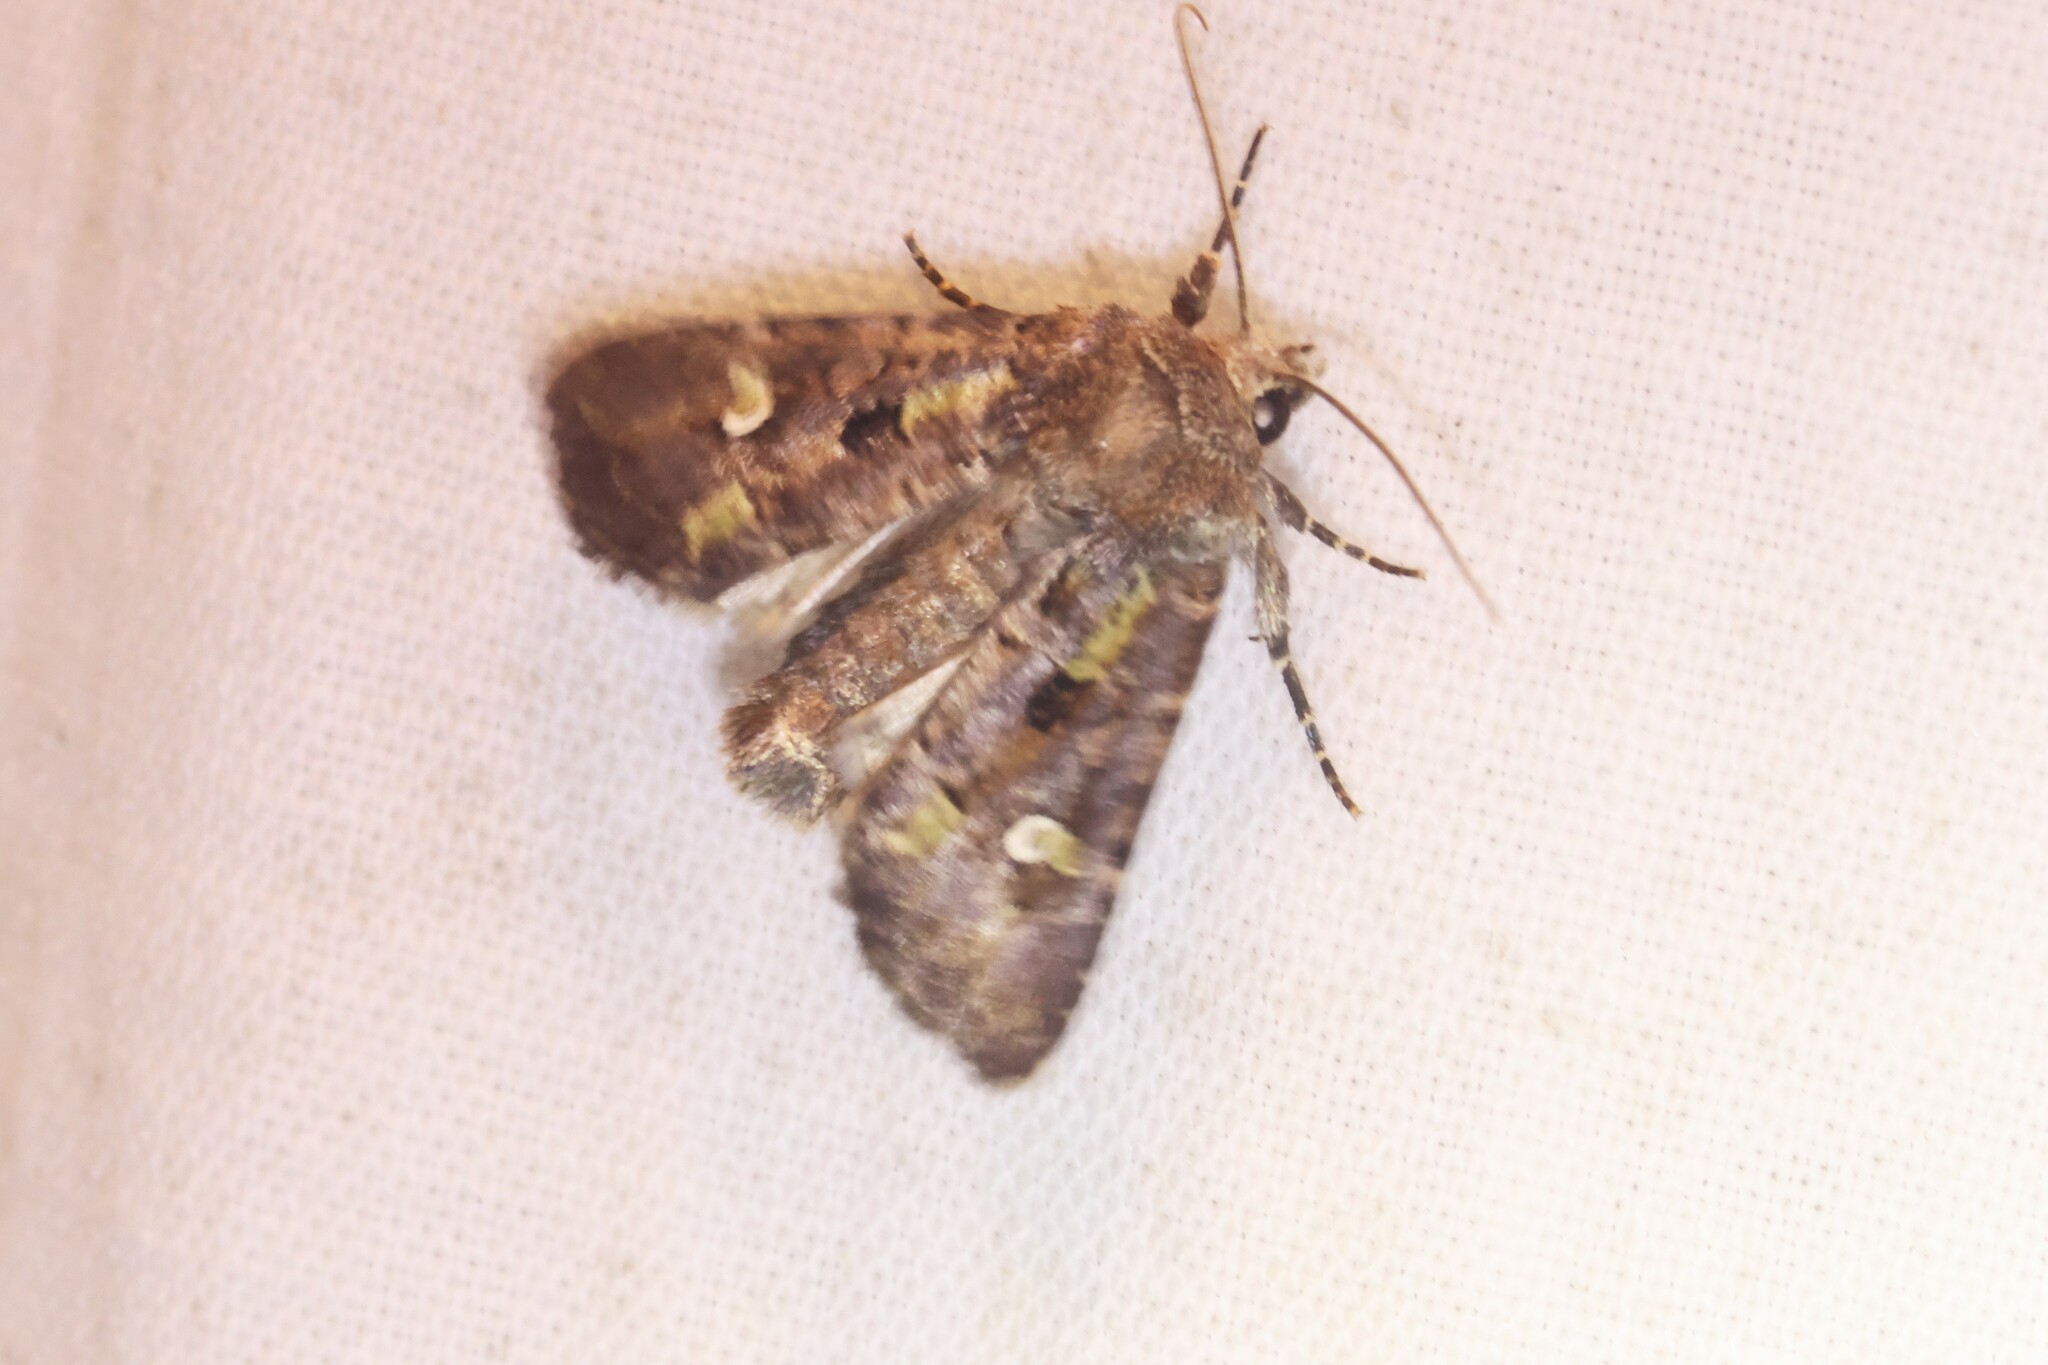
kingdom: Animalia
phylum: Arthropoda
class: Insecta
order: Lepidoptera
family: Noctuidae
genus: Lacinipolia
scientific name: Lacinipolia renigera
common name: Kidney-spotted minor
